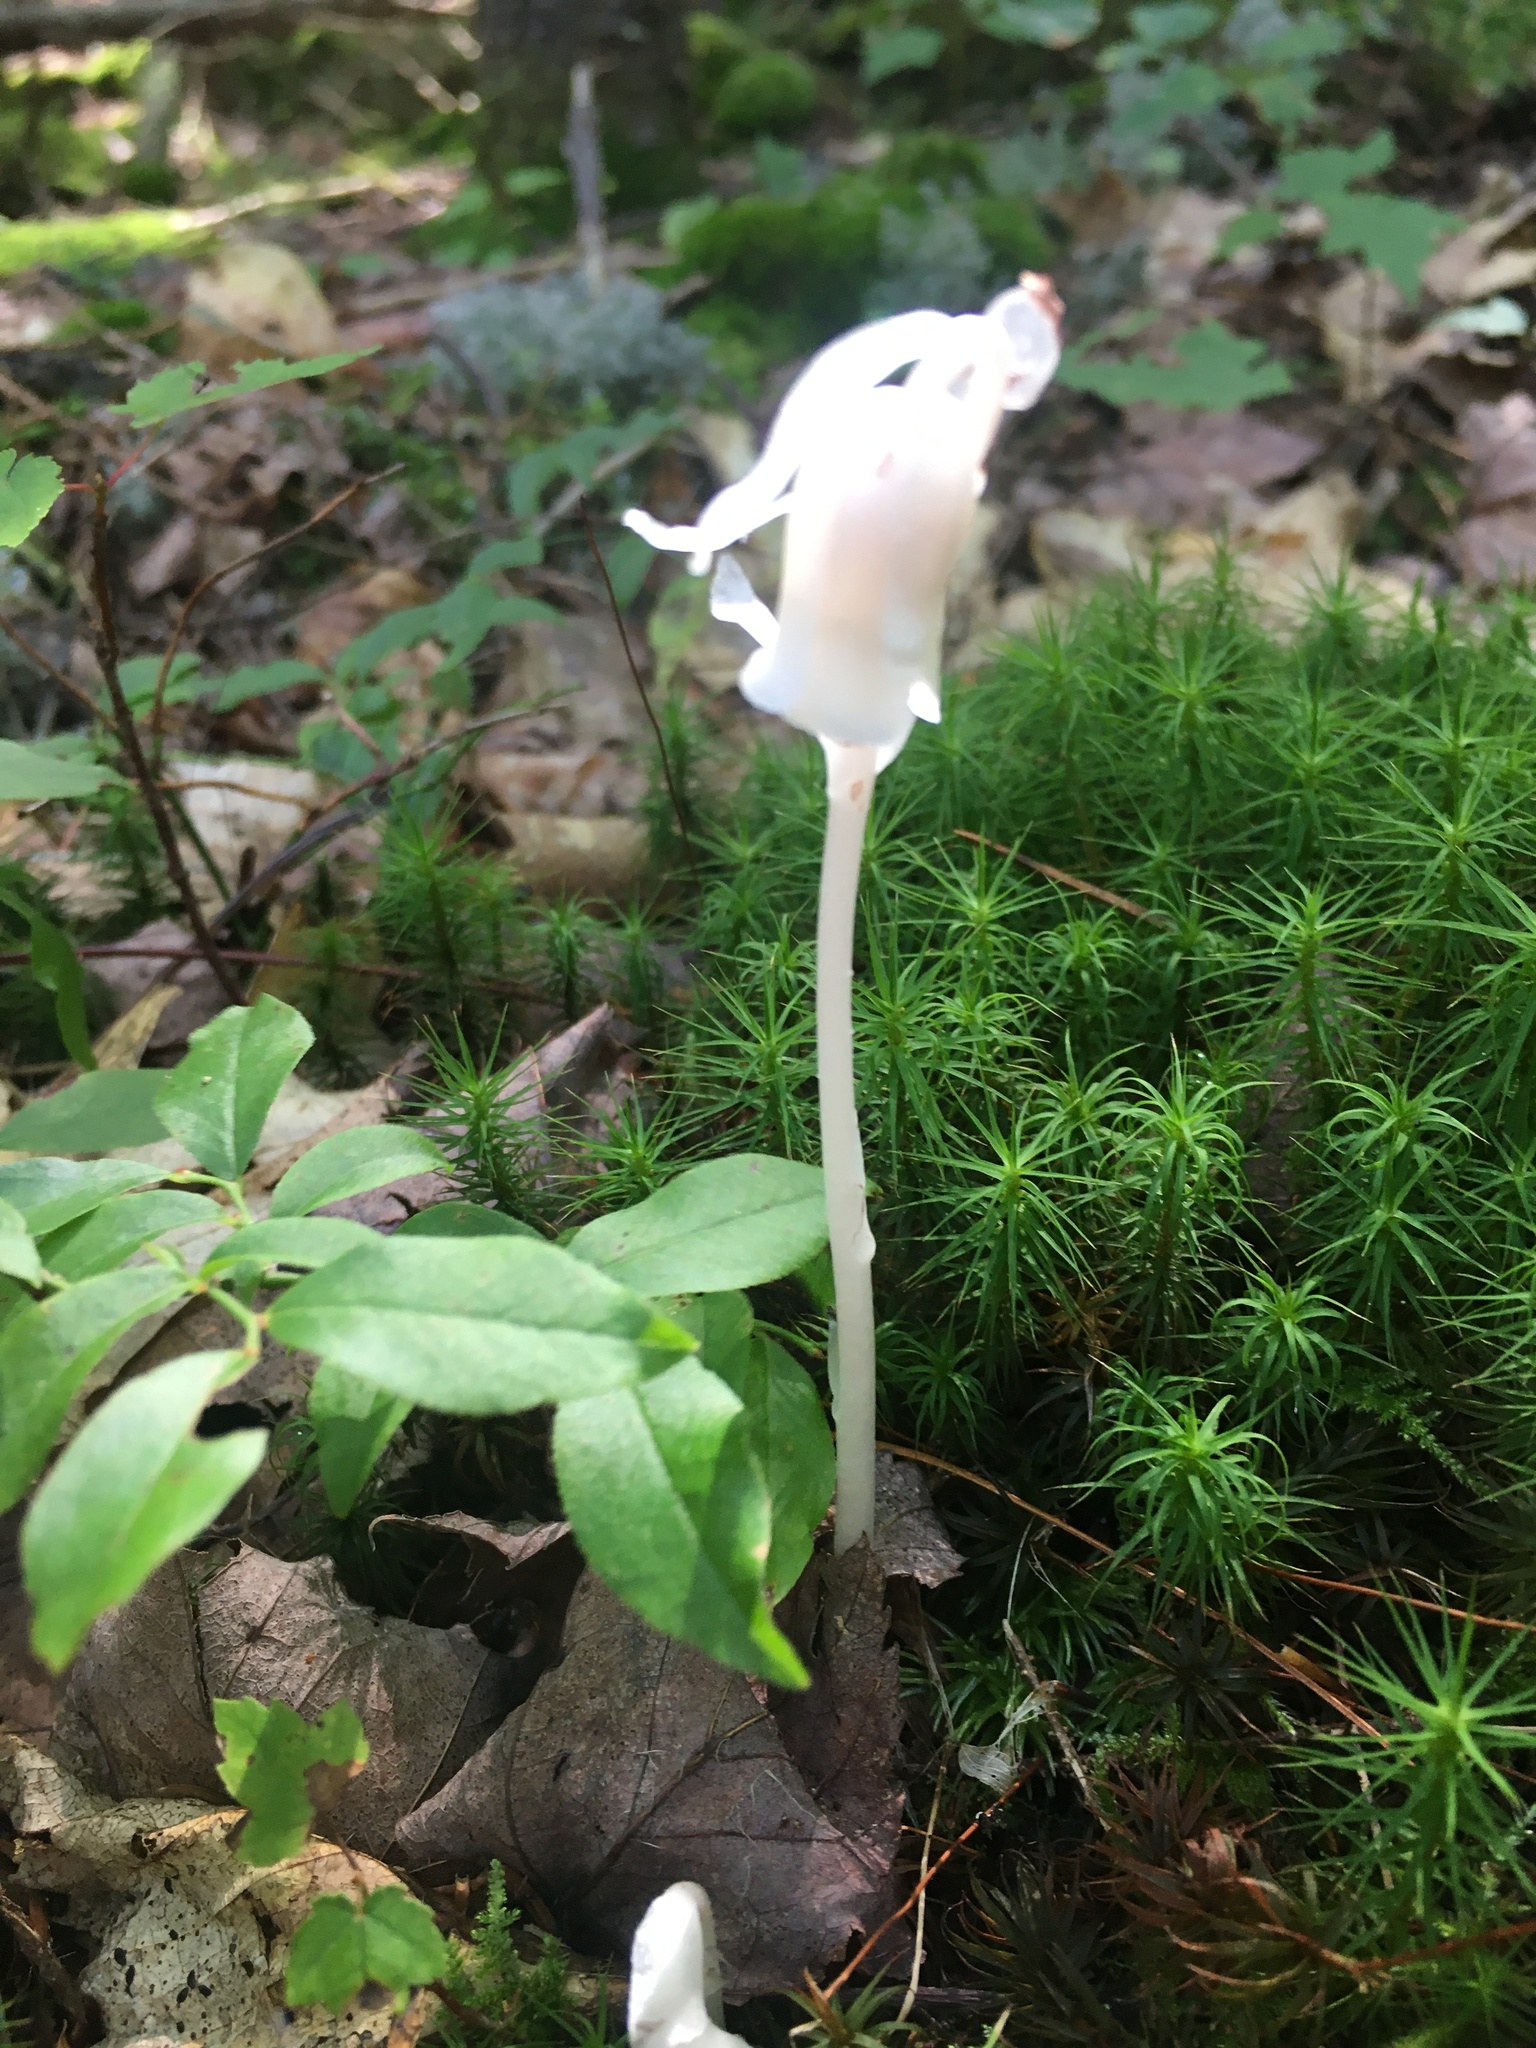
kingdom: Plantae
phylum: Tracheophyta
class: Magnoliopsida
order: Ericales
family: Ericaceae
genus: Monotropa
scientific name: Monotropa uniflora
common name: Convulsion root
